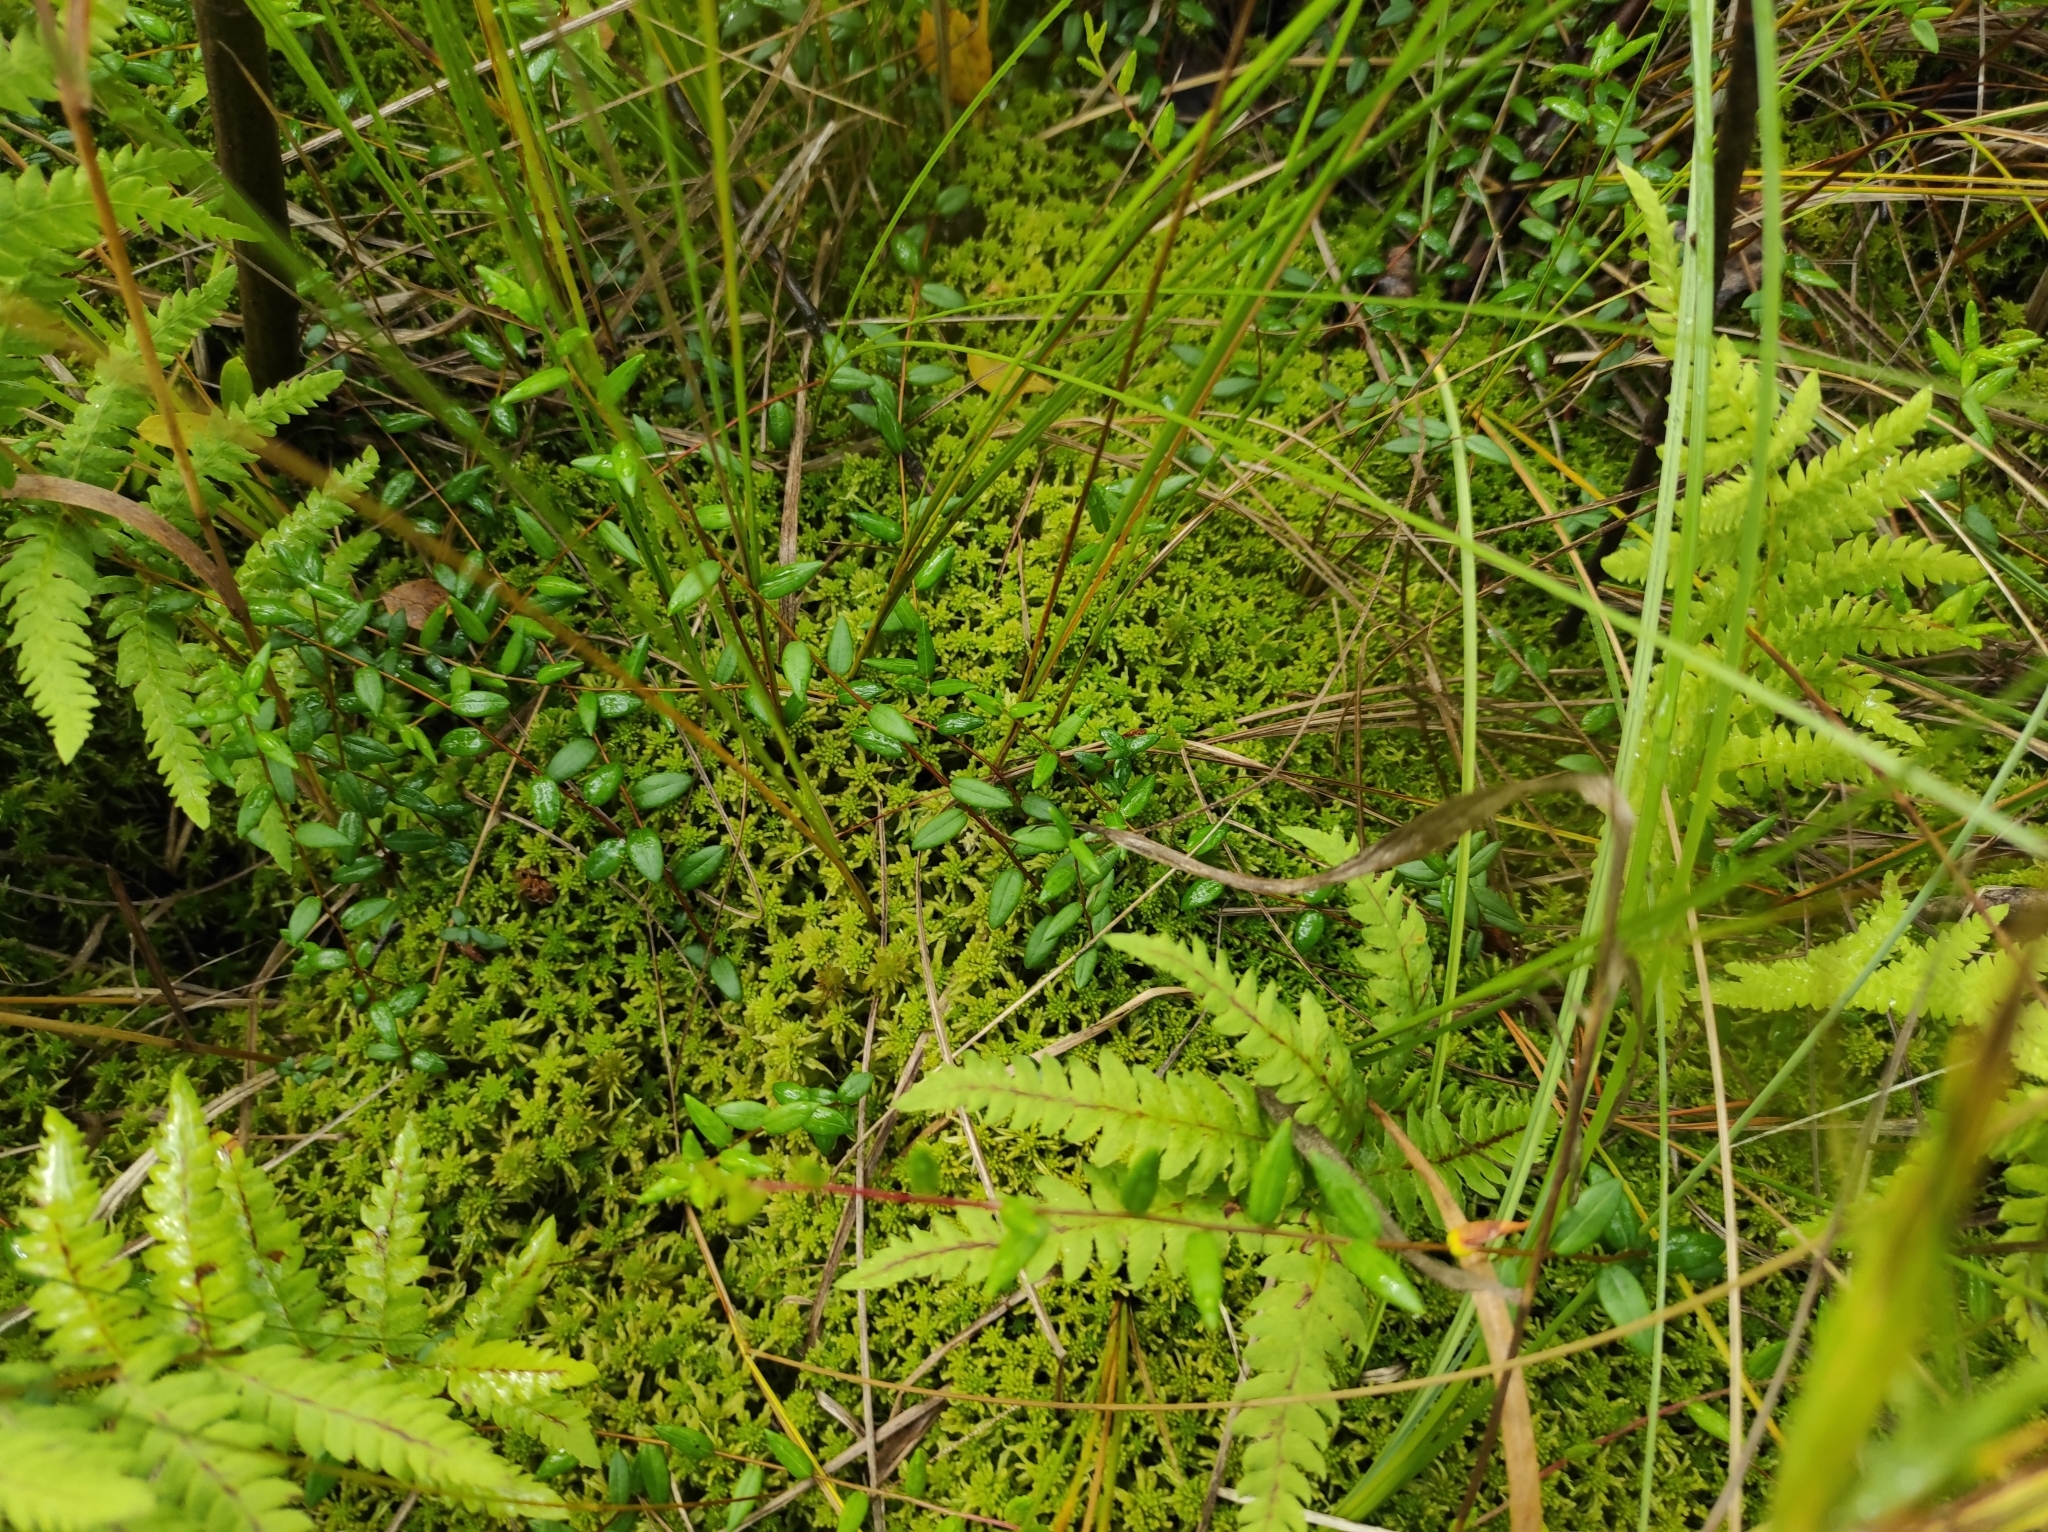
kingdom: Plantae
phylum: Tracheophyta
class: Polypodiopsida
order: Polypodiales
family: Thelypteridaceae
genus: Thelypteris
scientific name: Thelypteris palustris
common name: Marsh fern
